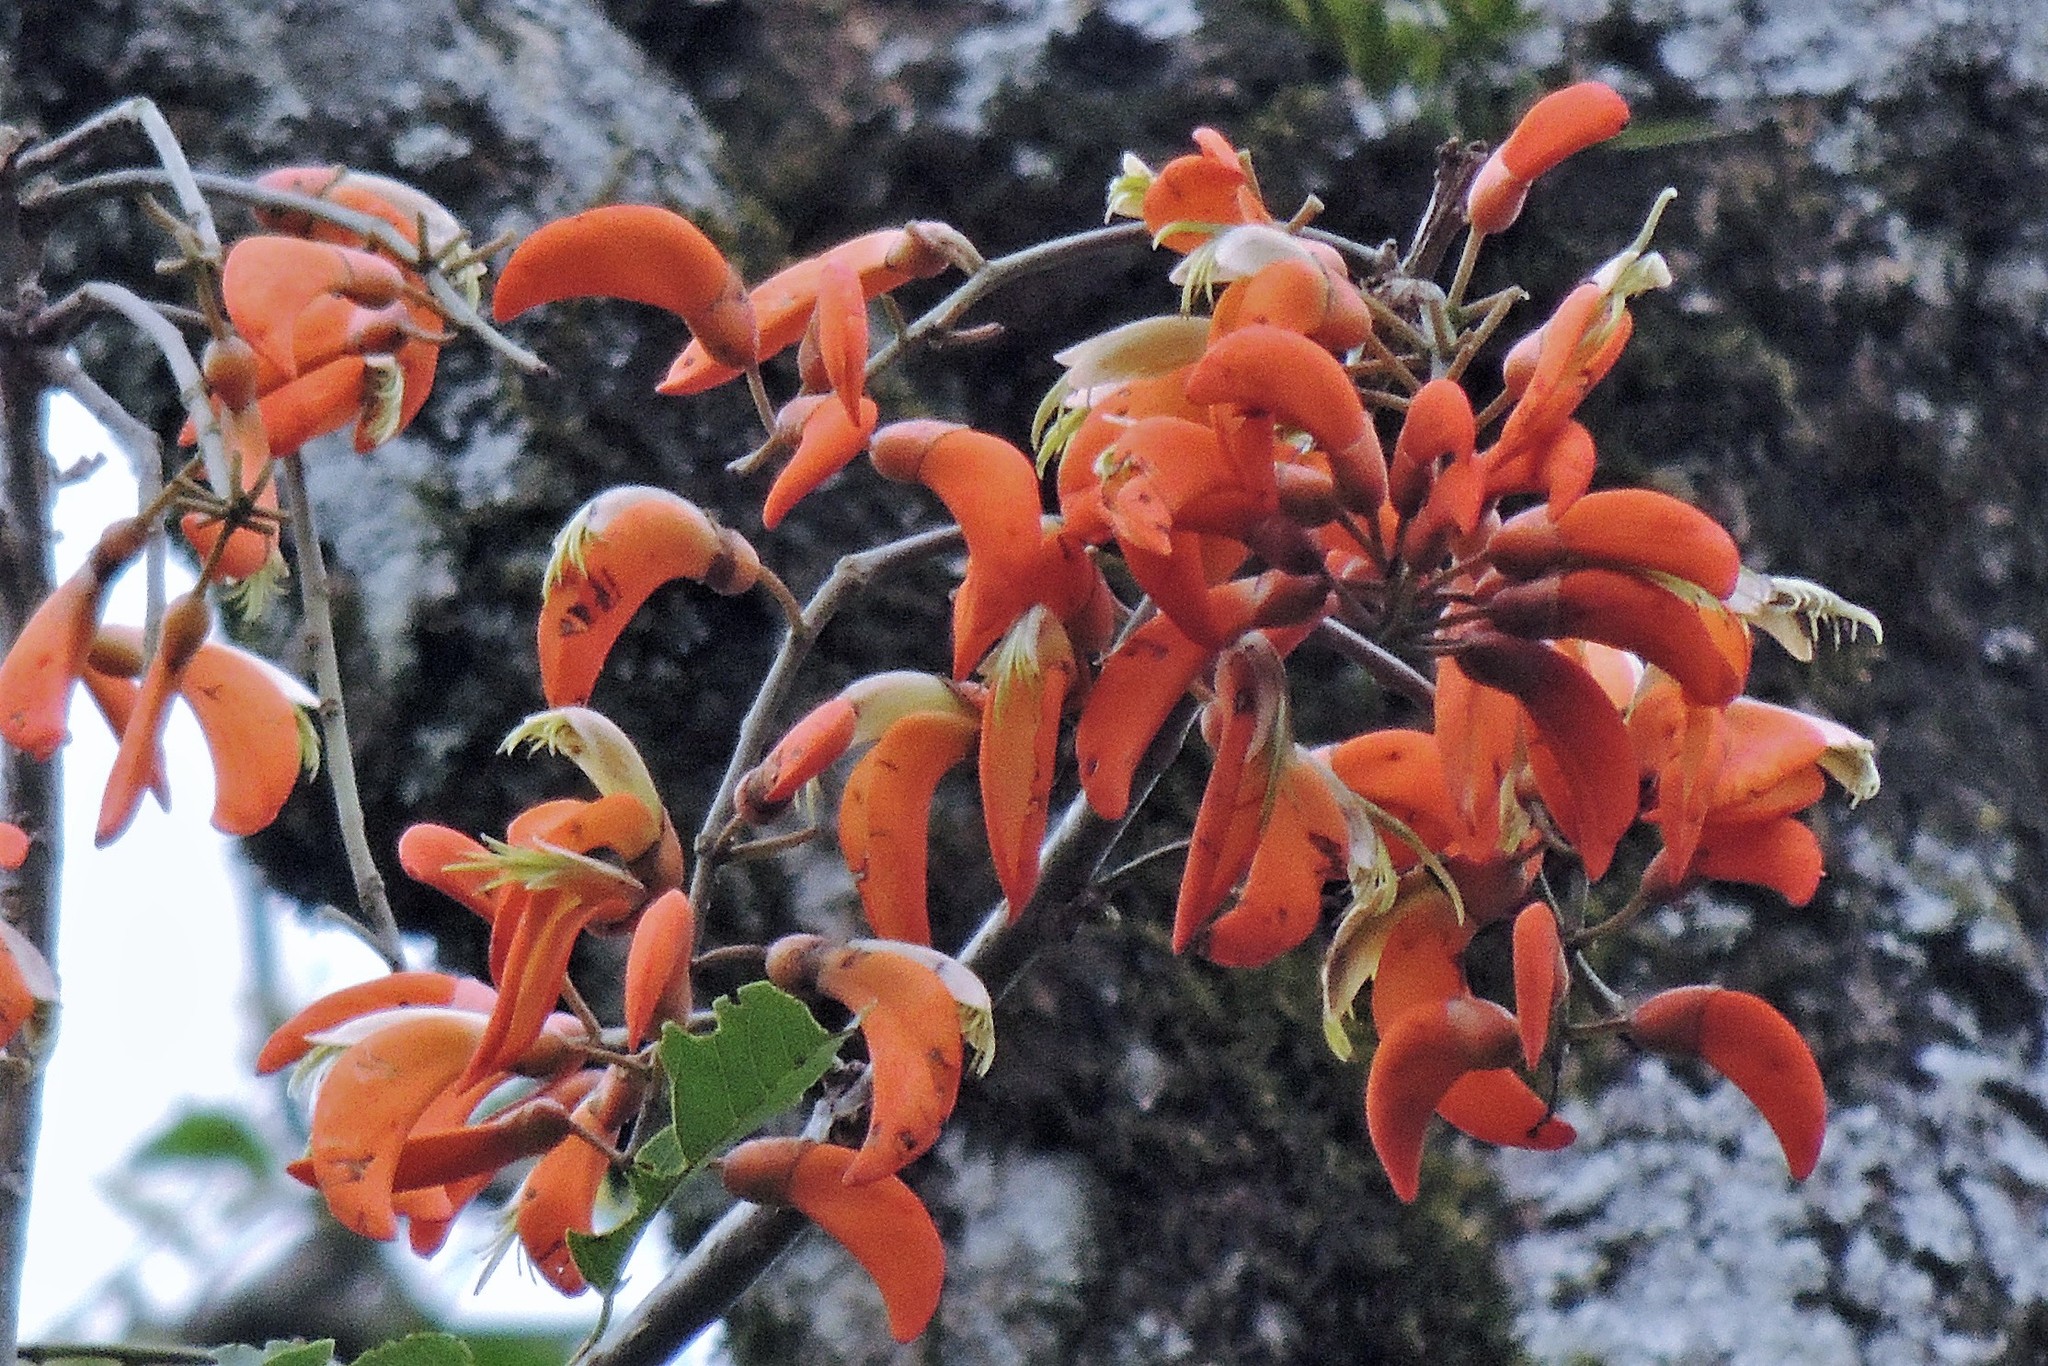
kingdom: Plantae
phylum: Tracheophyta
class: Magnoliopsida
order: Fabales
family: Fabaceae
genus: Erythrina
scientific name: Erythrina falcata
